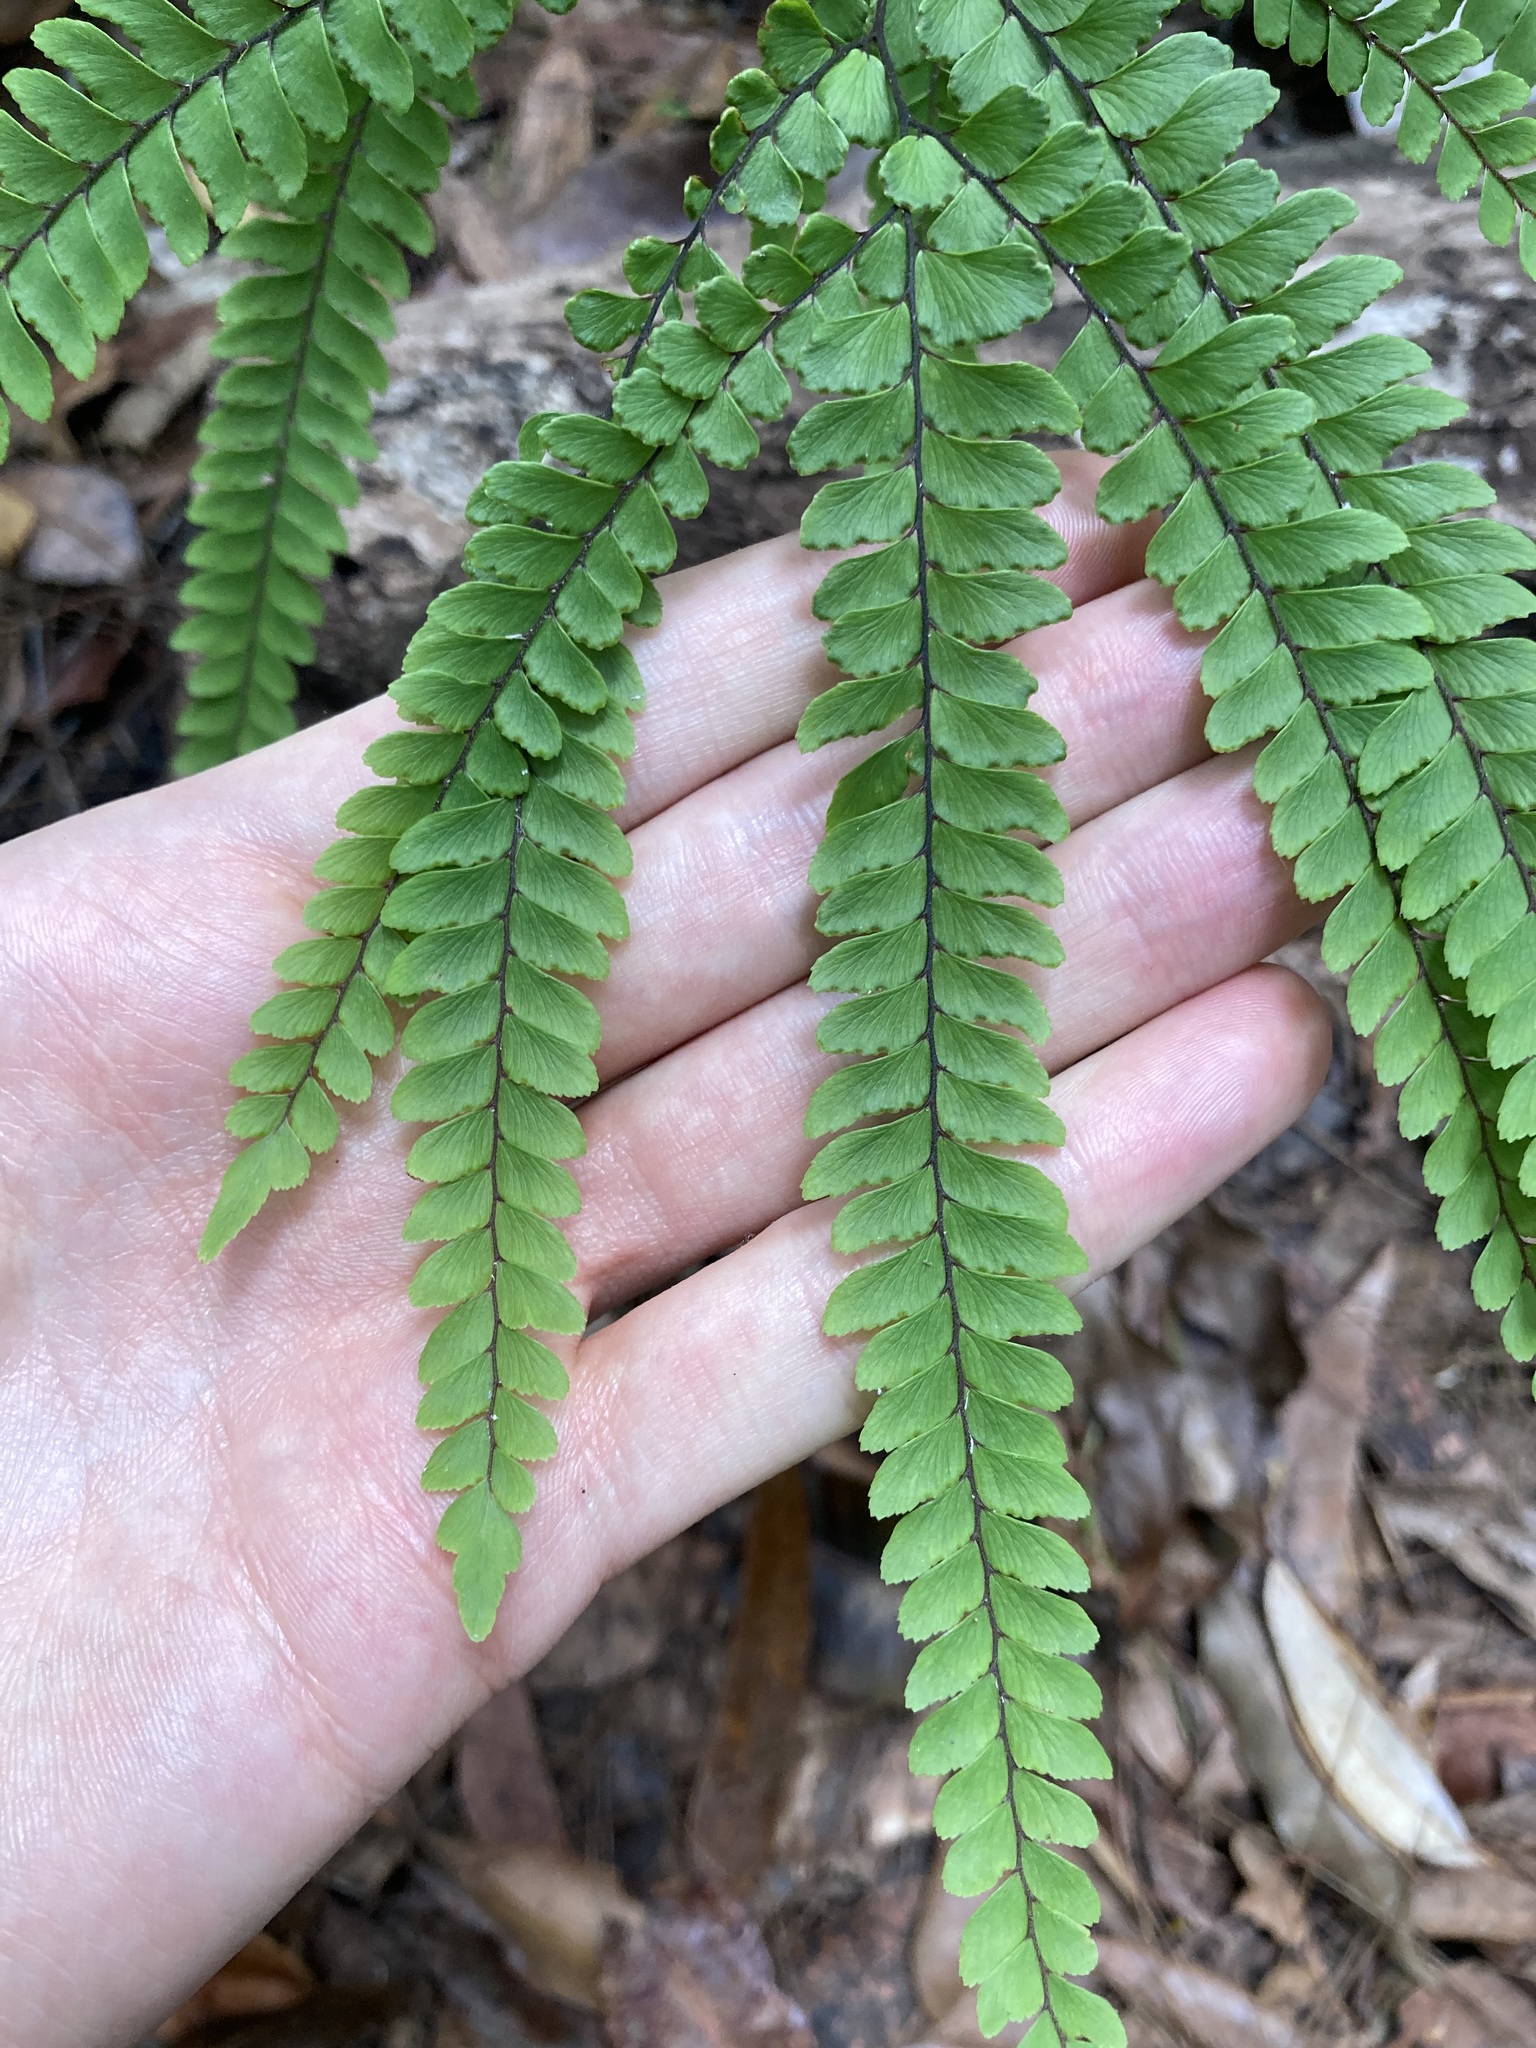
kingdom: Plantae
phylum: Tracheophyta
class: Polypodiopsida
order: Polypodiales
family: Pteridaceae
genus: Adiantum
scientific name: Adiantum silvaticum
